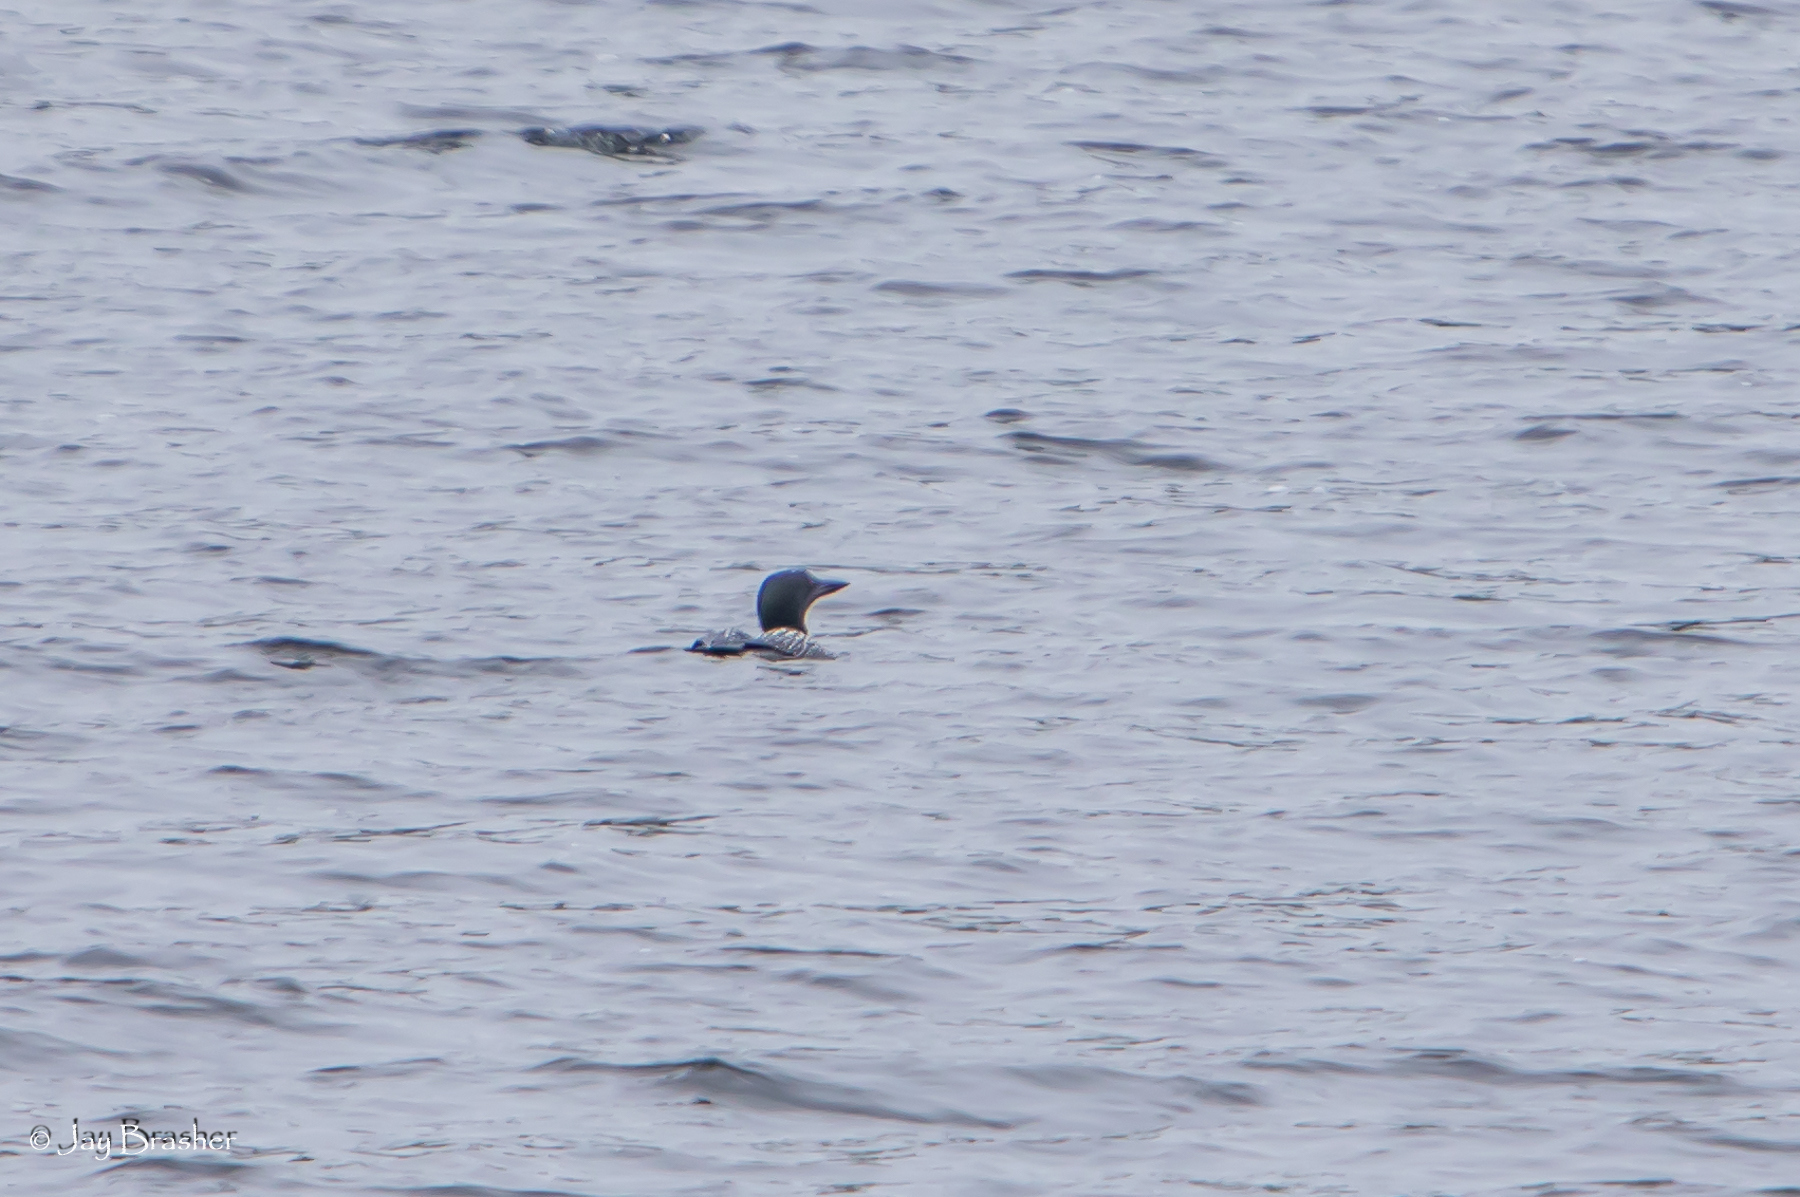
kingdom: Animalia
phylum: Chordata
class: Aves
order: Gaviiformes
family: Gaviidae
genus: Gavia
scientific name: Gavia immer
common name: Common loon
